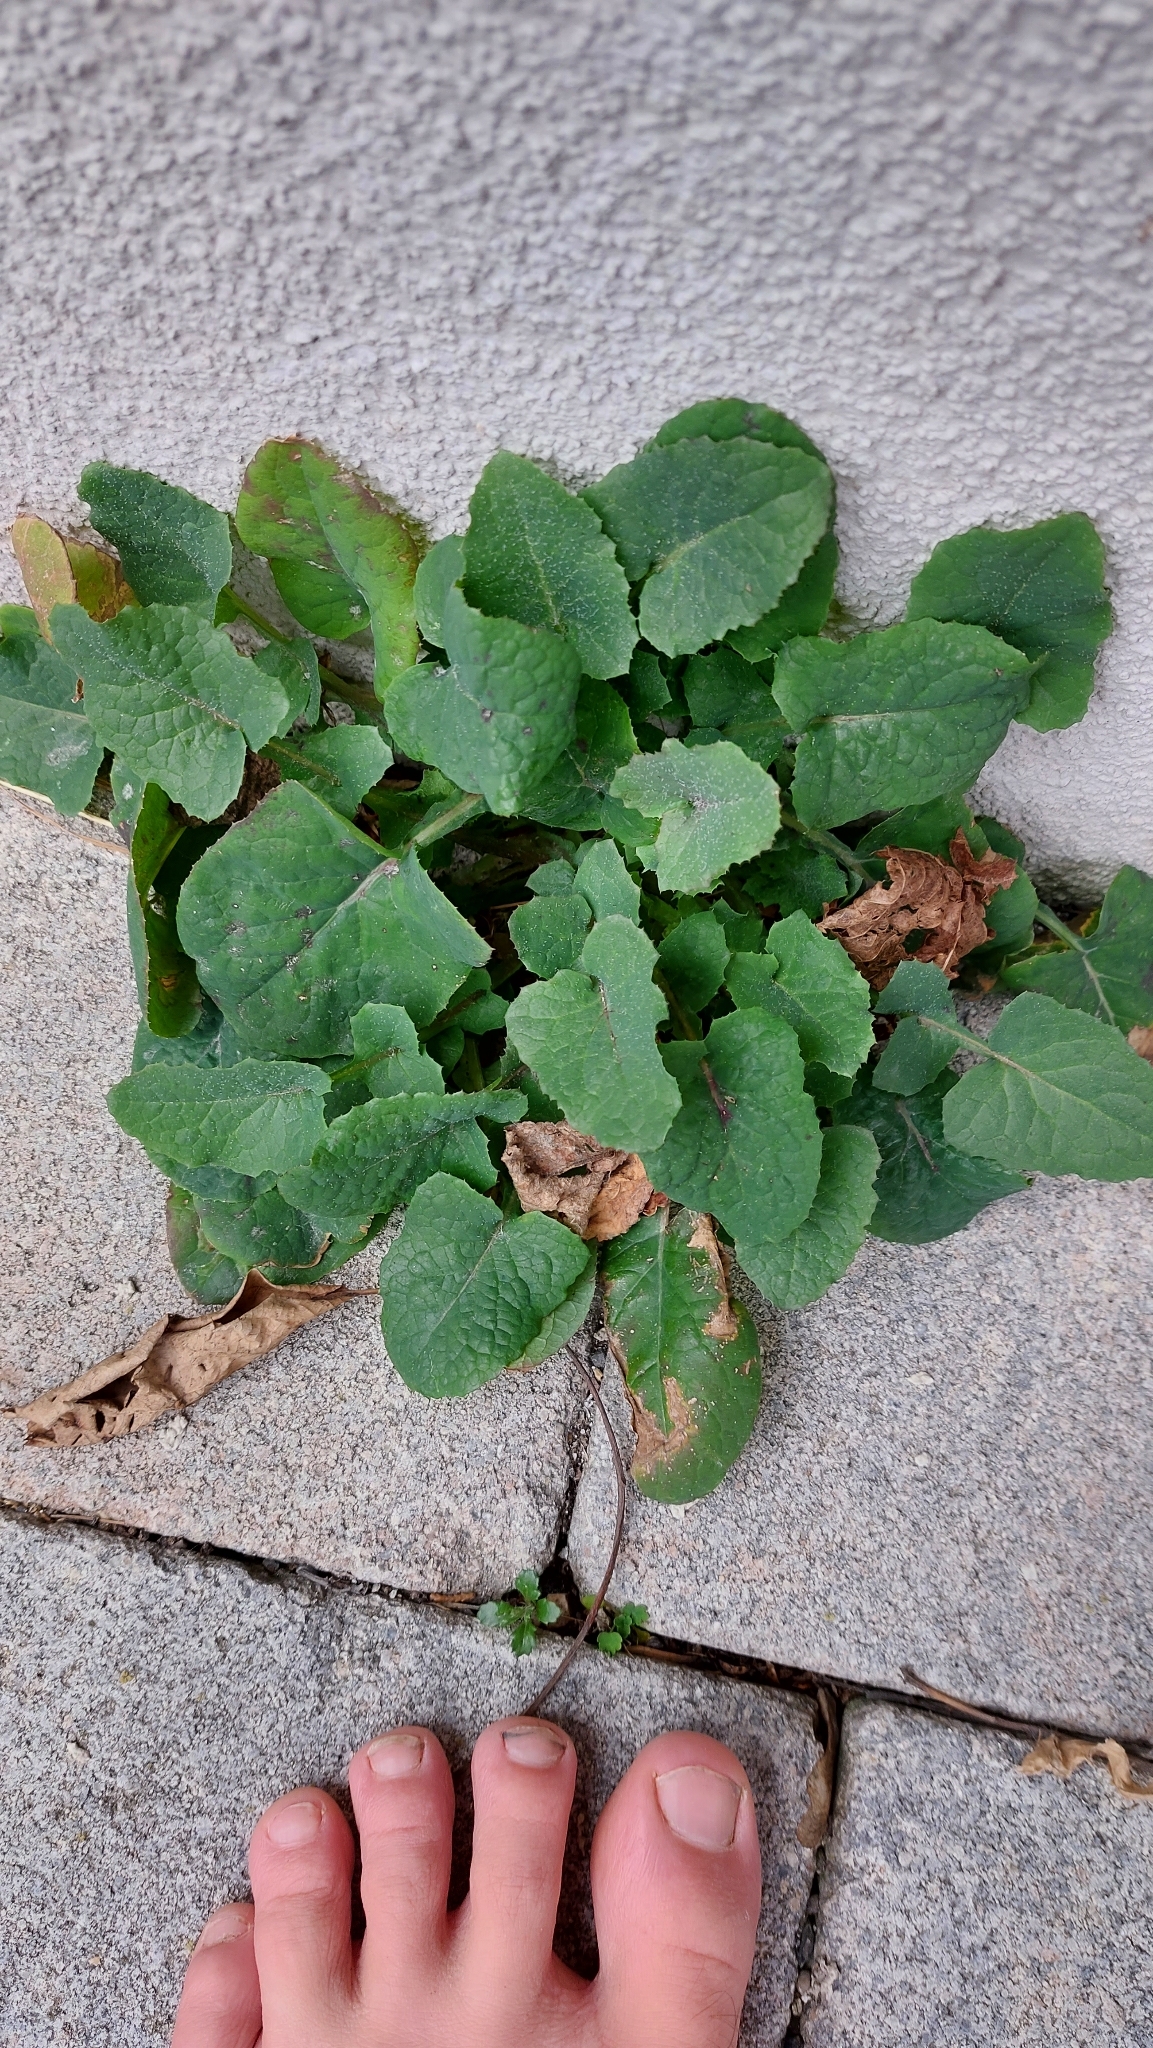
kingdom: Plantae
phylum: Tracheophyta
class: Magnoliopsida
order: Asterales
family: Asteraceae
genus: Sonchus
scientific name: Sonchus oleraceus
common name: Common sowthistle
